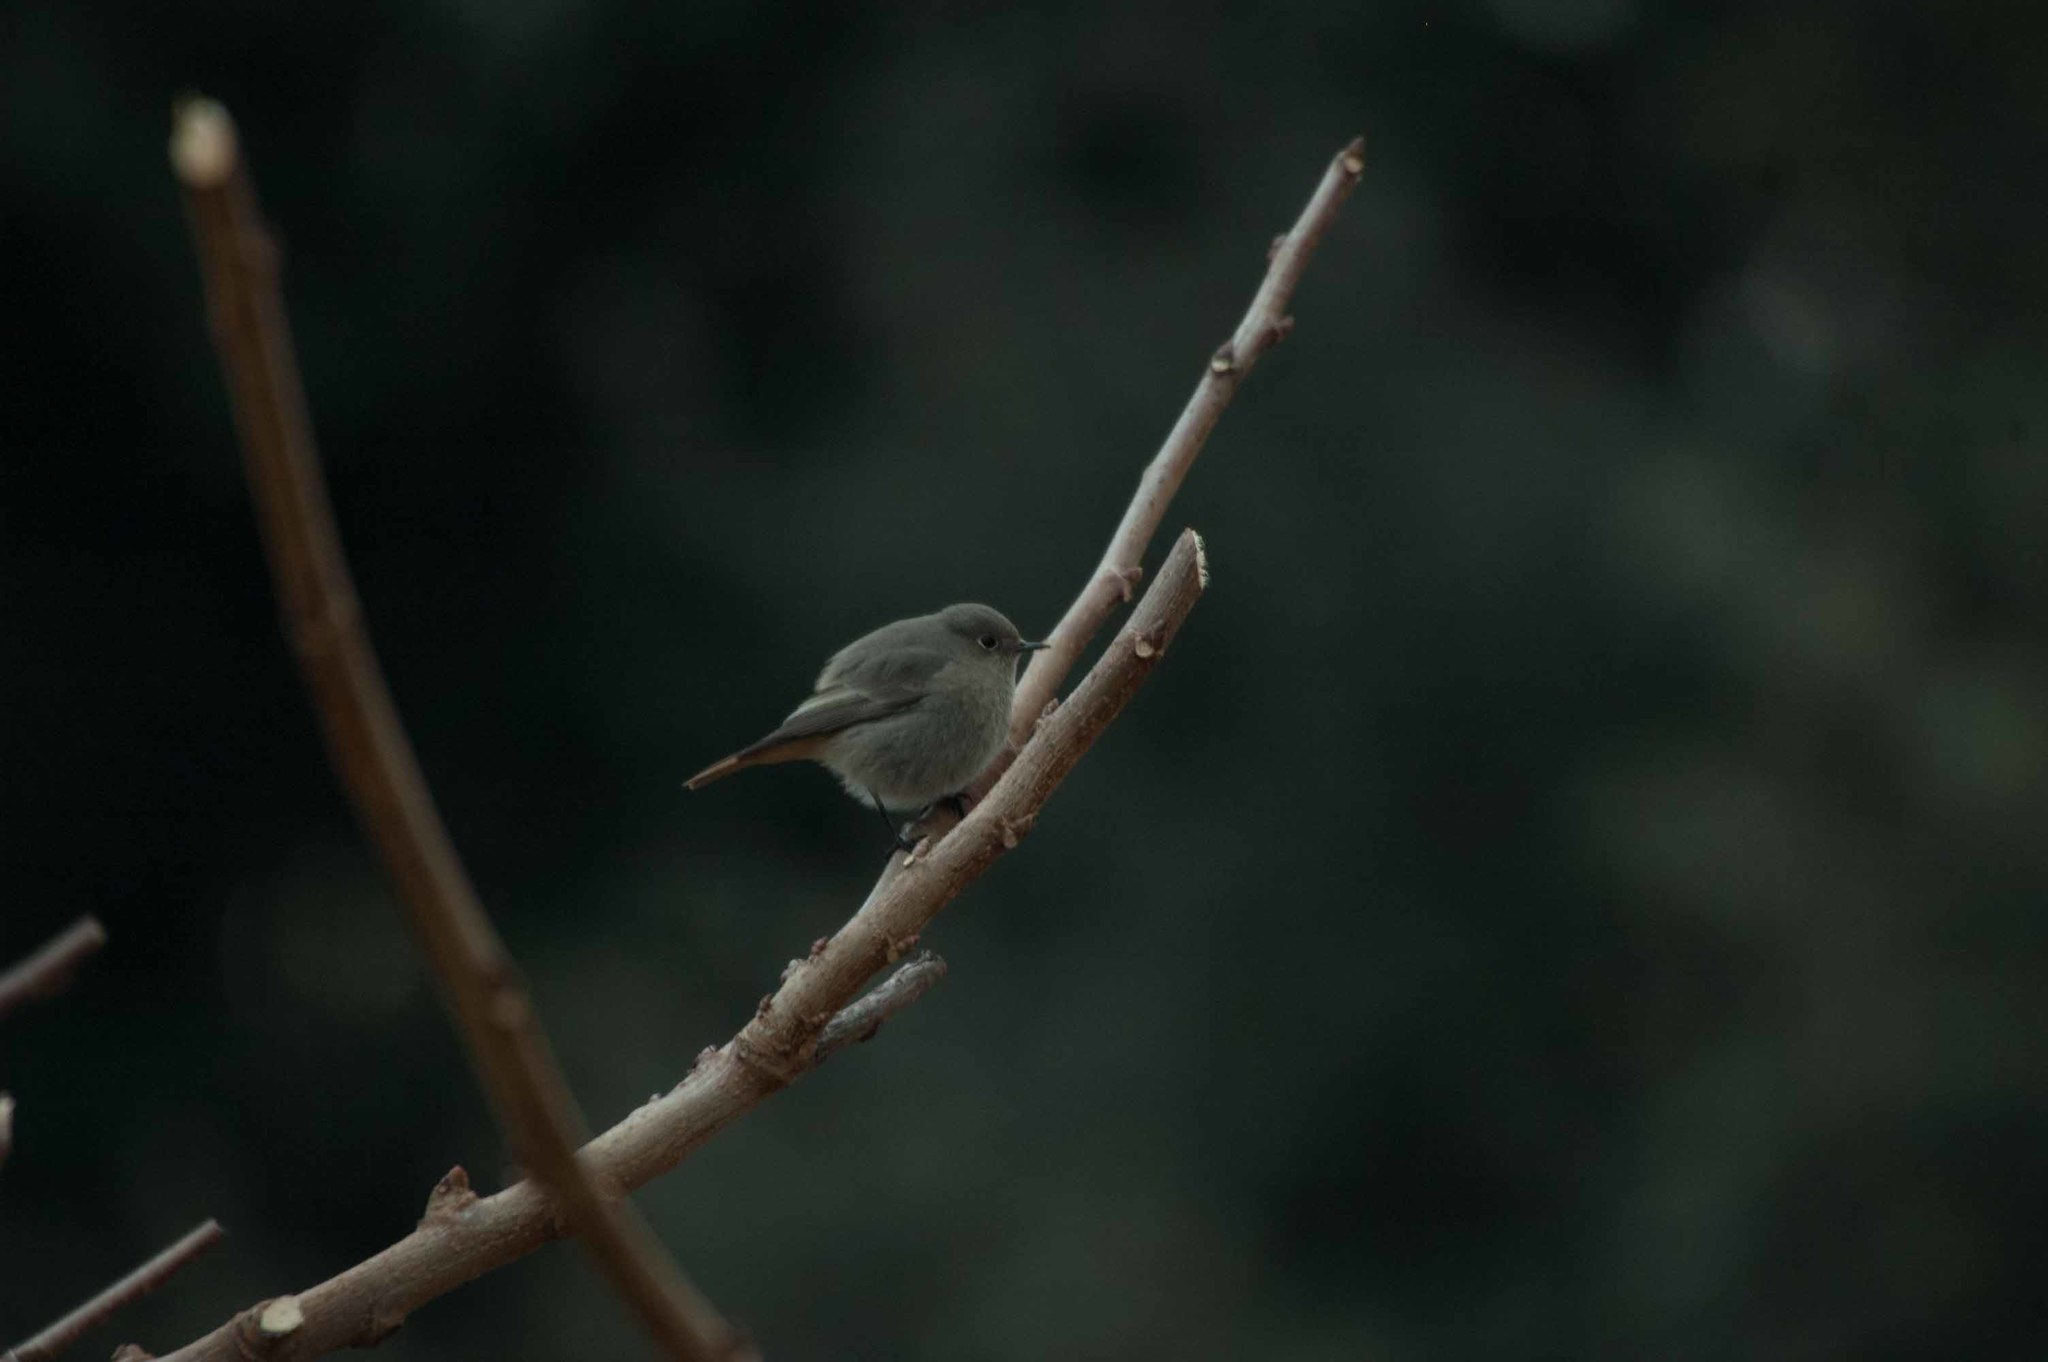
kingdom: Animalia
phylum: Chordata
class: Aves
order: Passeriformes
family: Muscicapidae
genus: Phoenicurus
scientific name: Phoenicurus ochruros
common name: Black redstart
